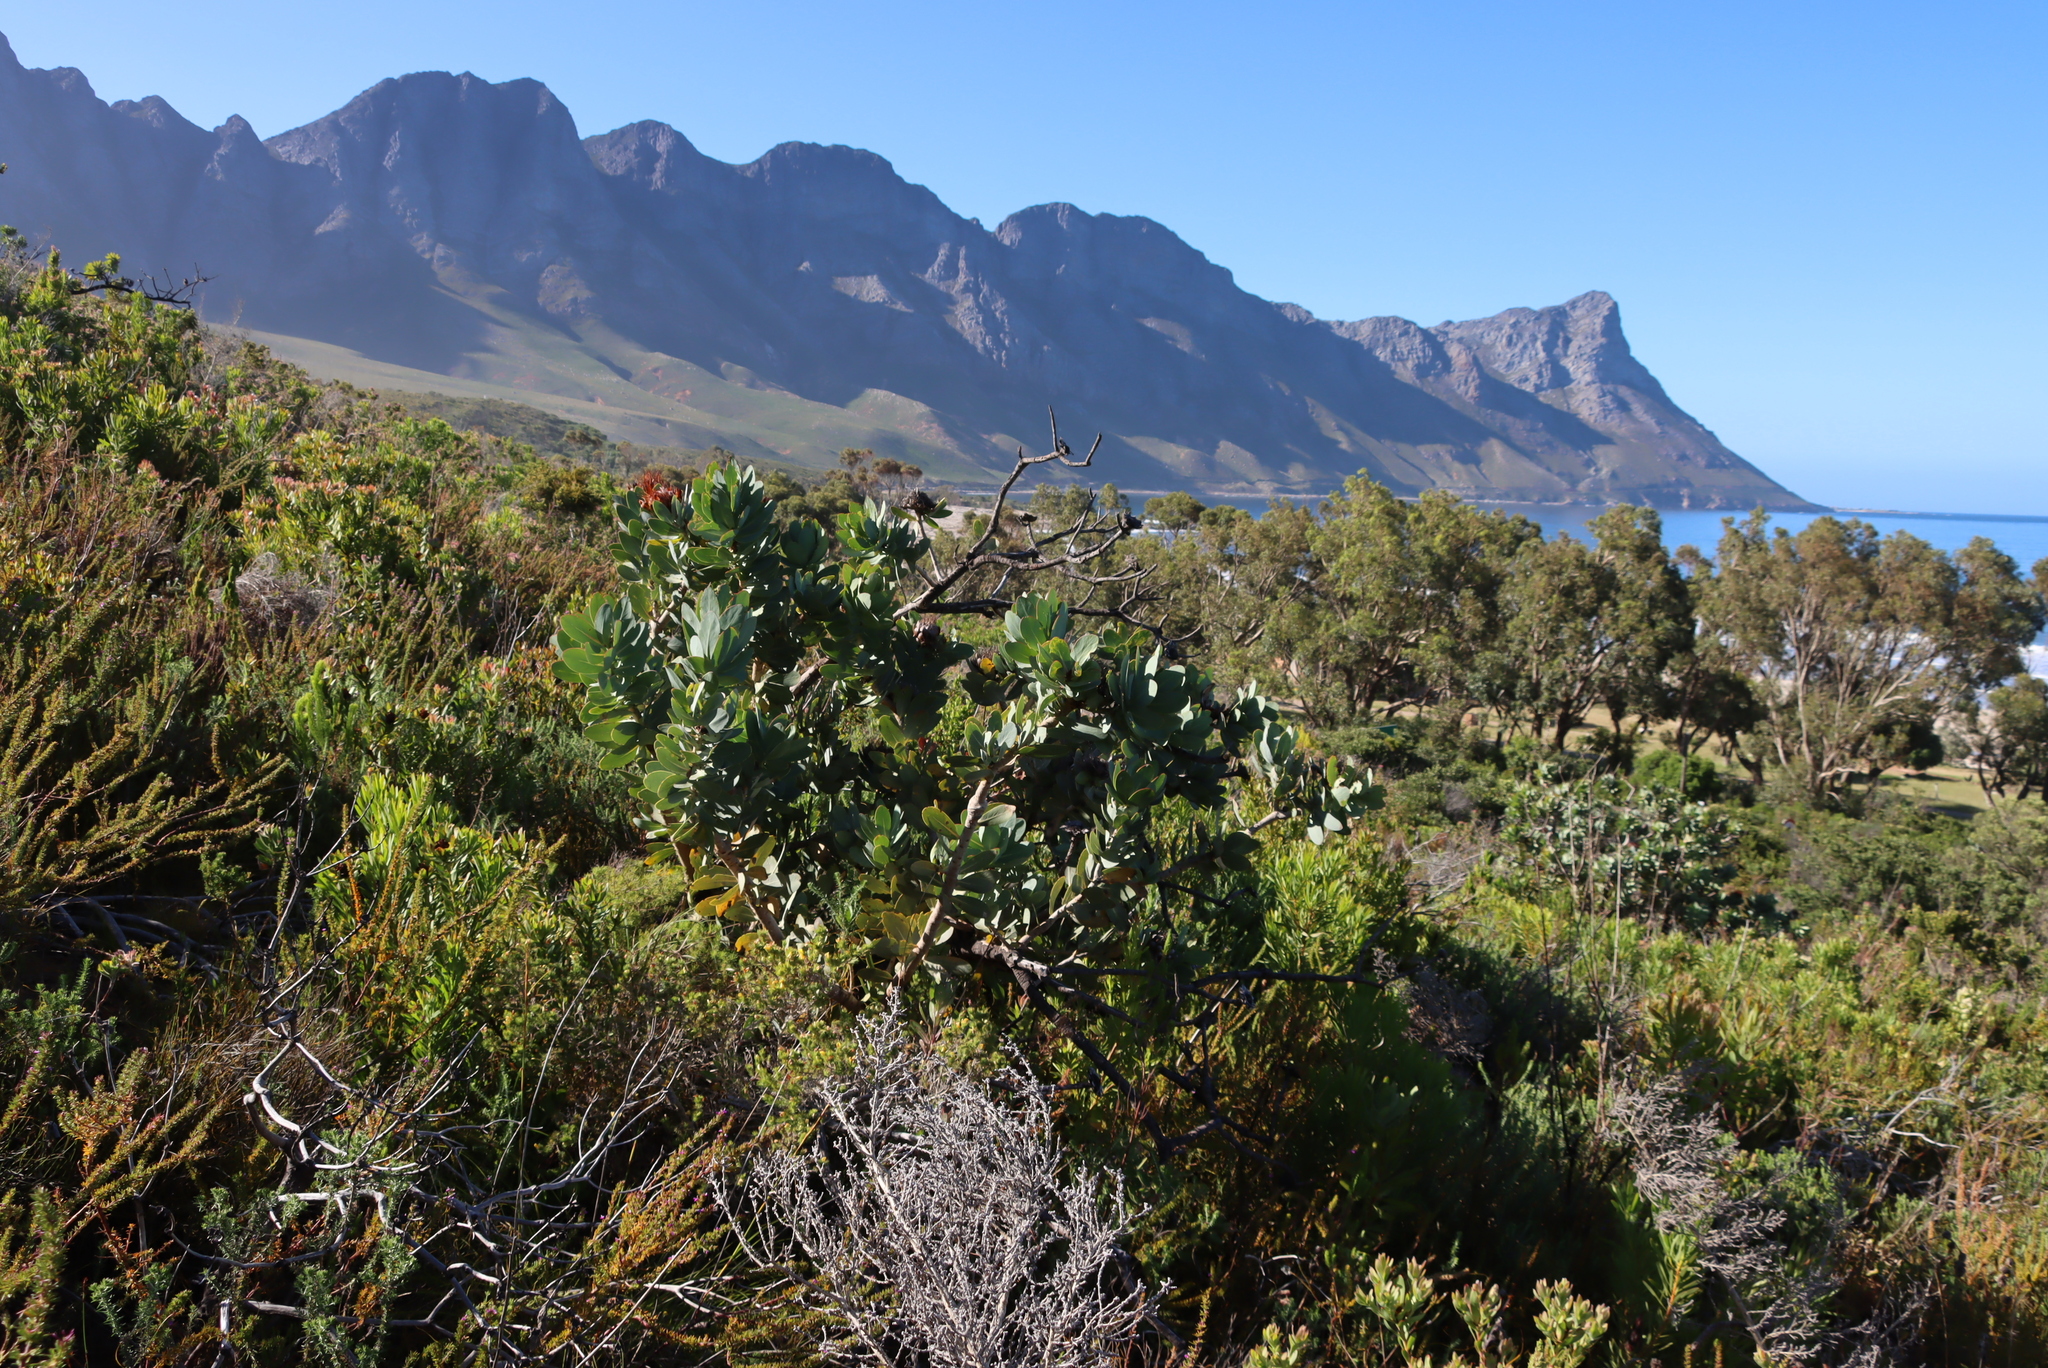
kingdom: Plantae
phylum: Tracheophyta
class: Magnoliopsida
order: Proteales
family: Proteaceae
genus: Protea
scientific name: Protea nitida
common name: Tree protea
